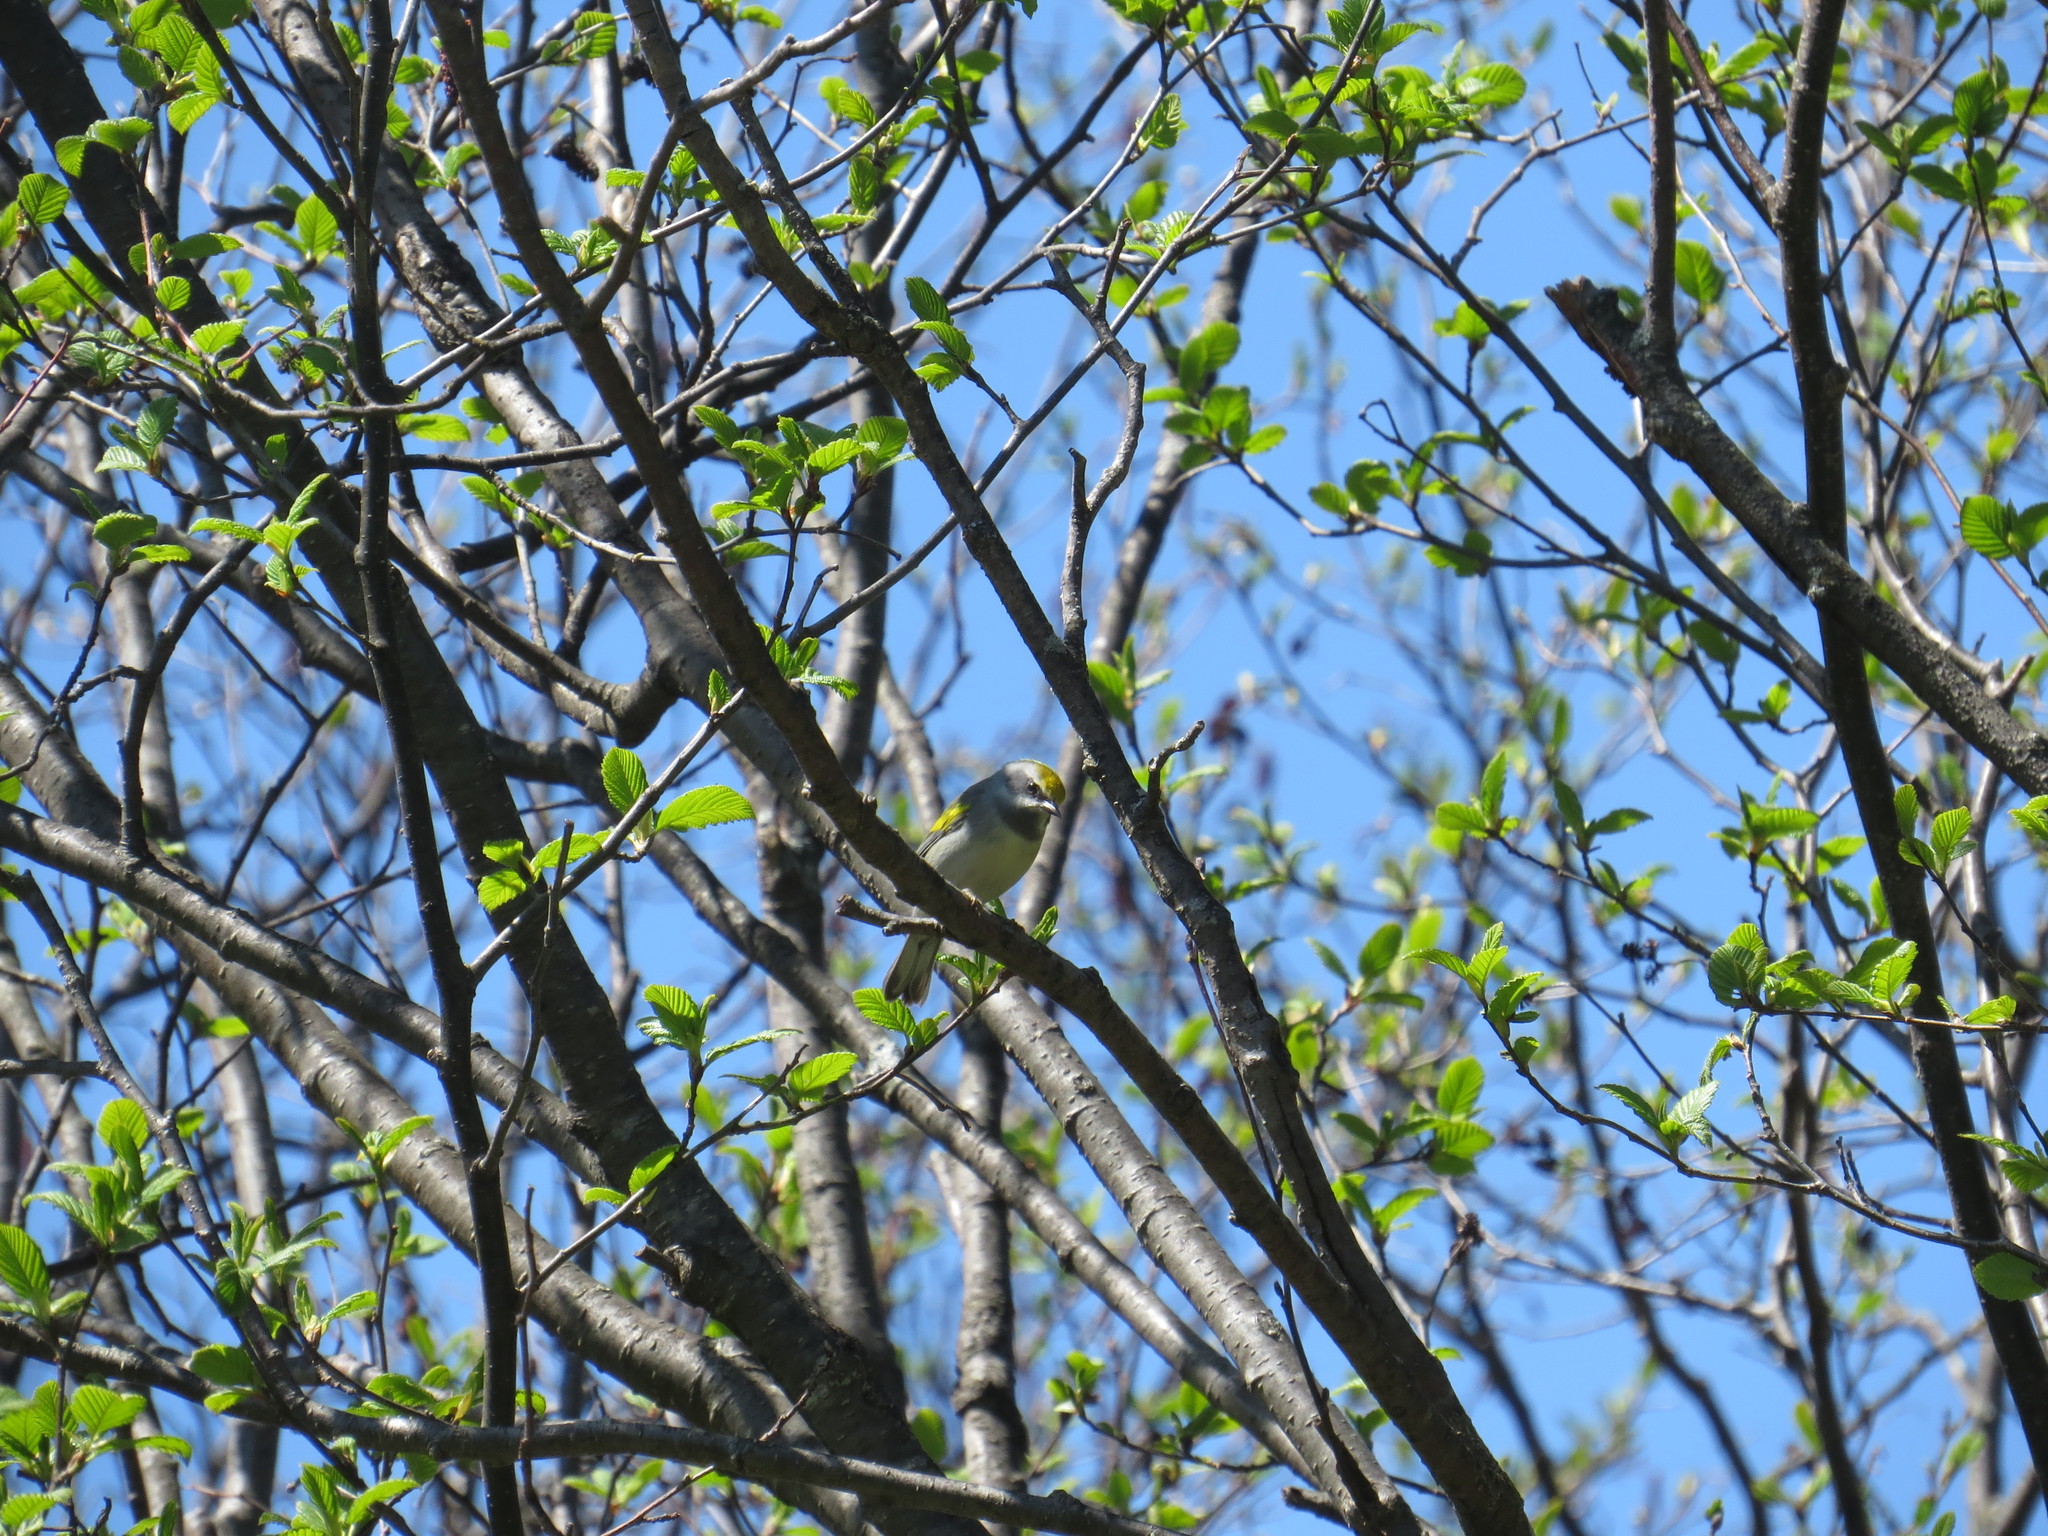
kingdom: Animalia
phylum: Chordata
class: Aves
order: Passeriformes
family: Parulidae
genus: Vermivora
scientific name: Vermivora chrysoptera
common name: Golden-winged warbler
